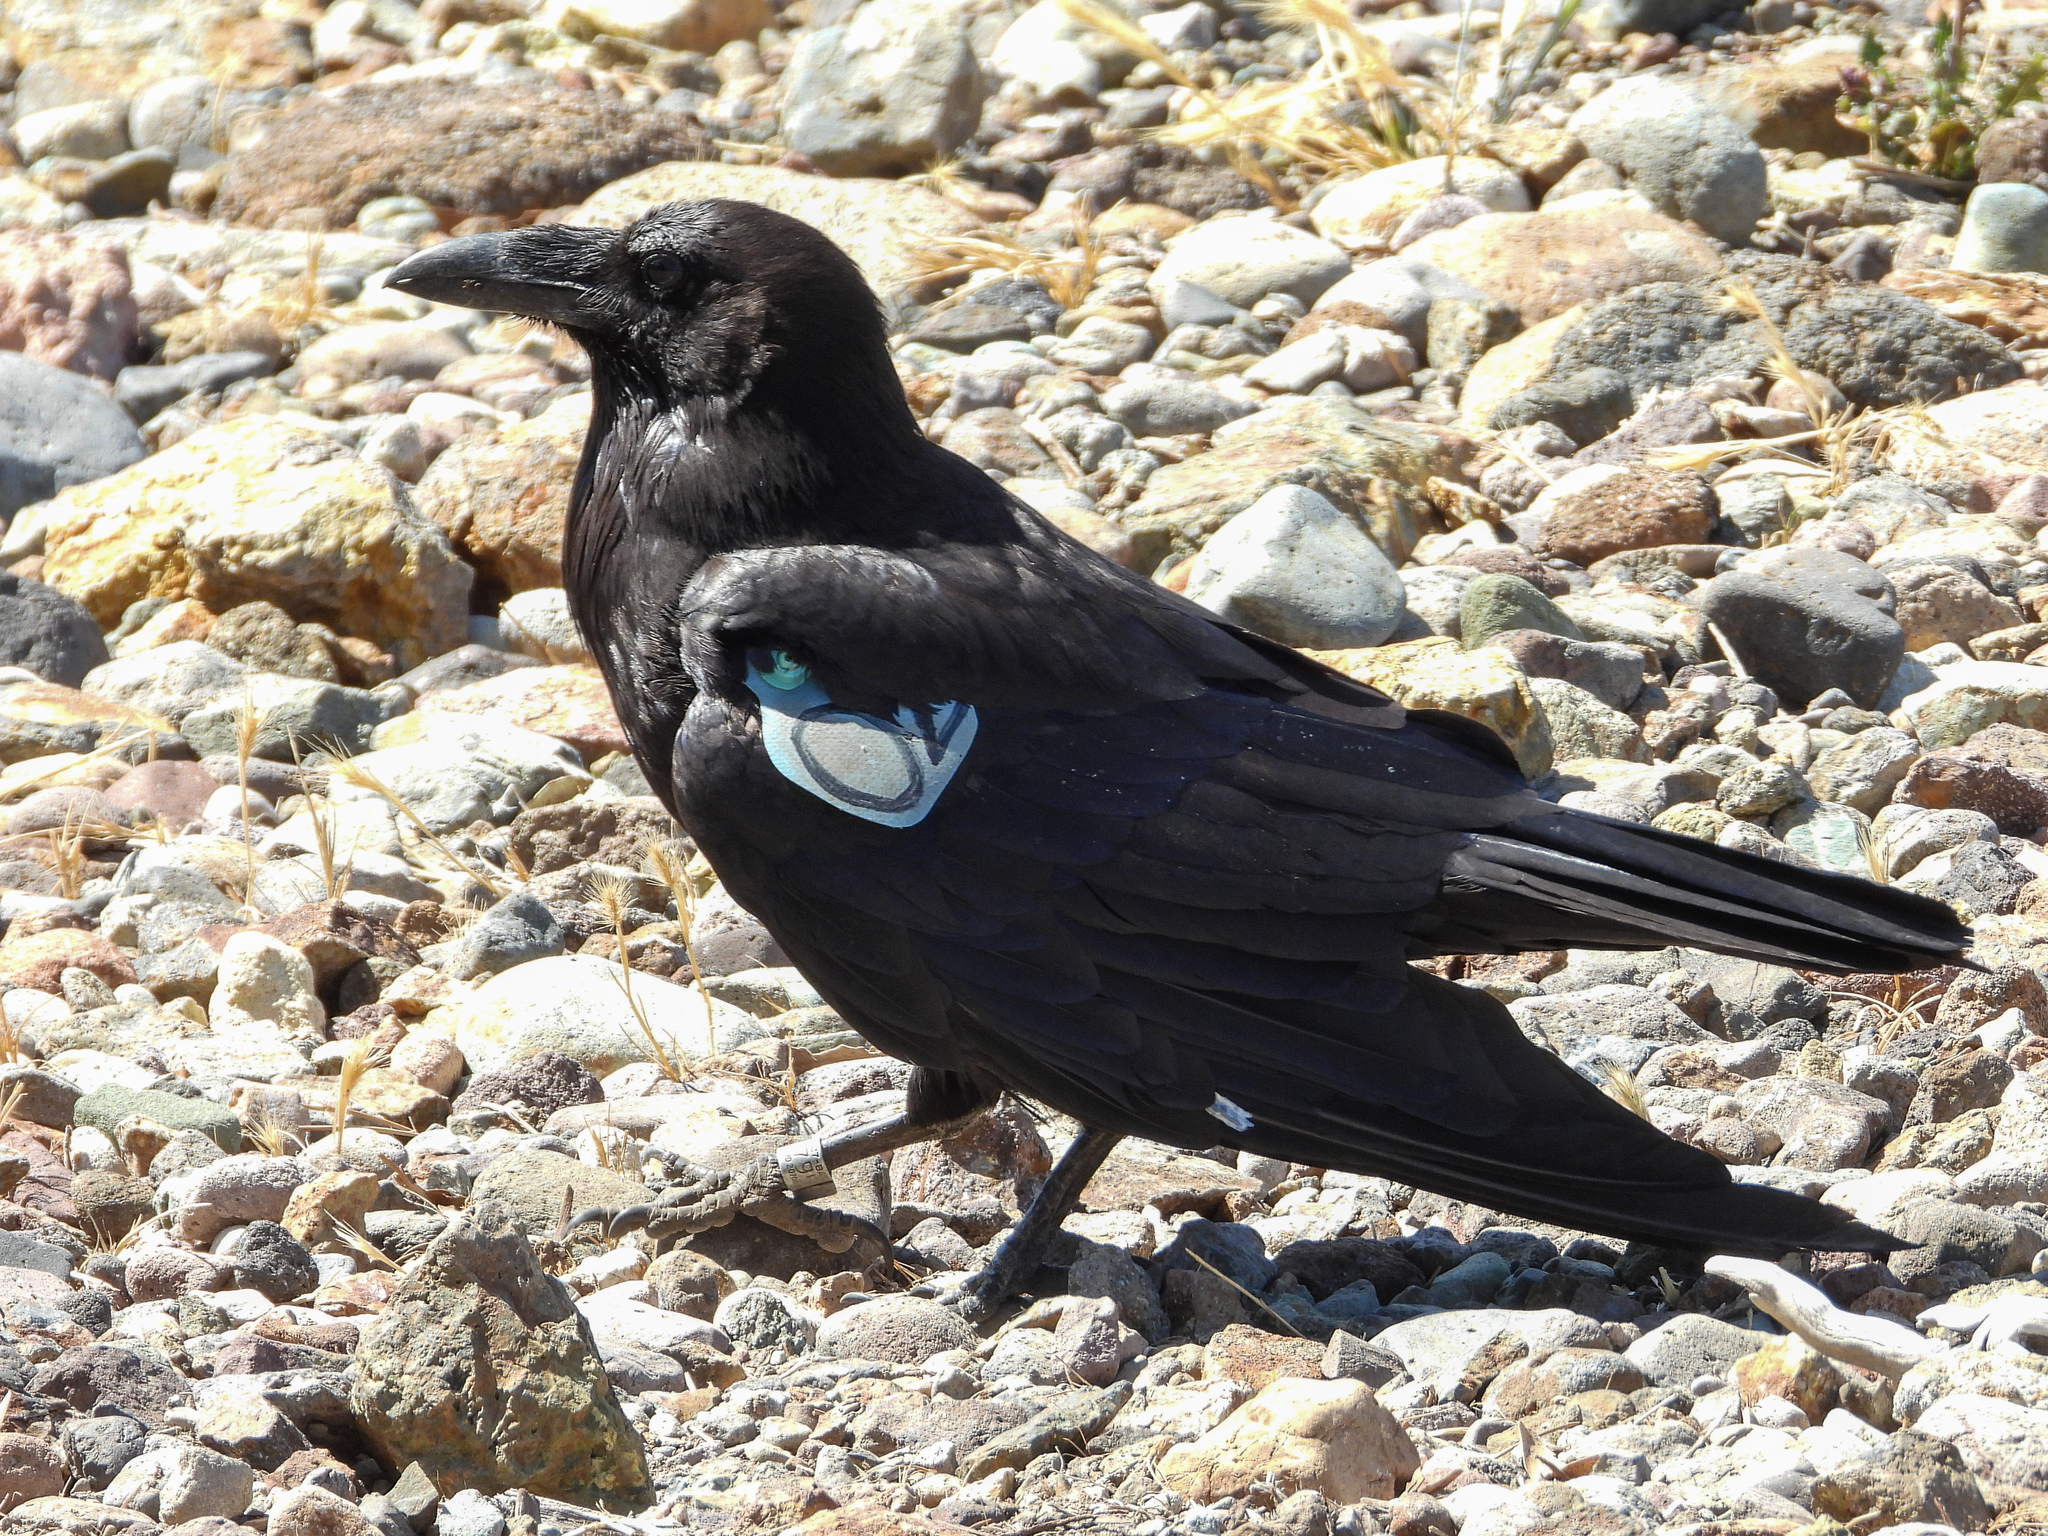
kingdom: Animalia
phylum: Chordata
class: Aves
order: Passeriformes
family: Corvidae
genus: Corvus
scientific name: Corvus corax
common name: Common raven
